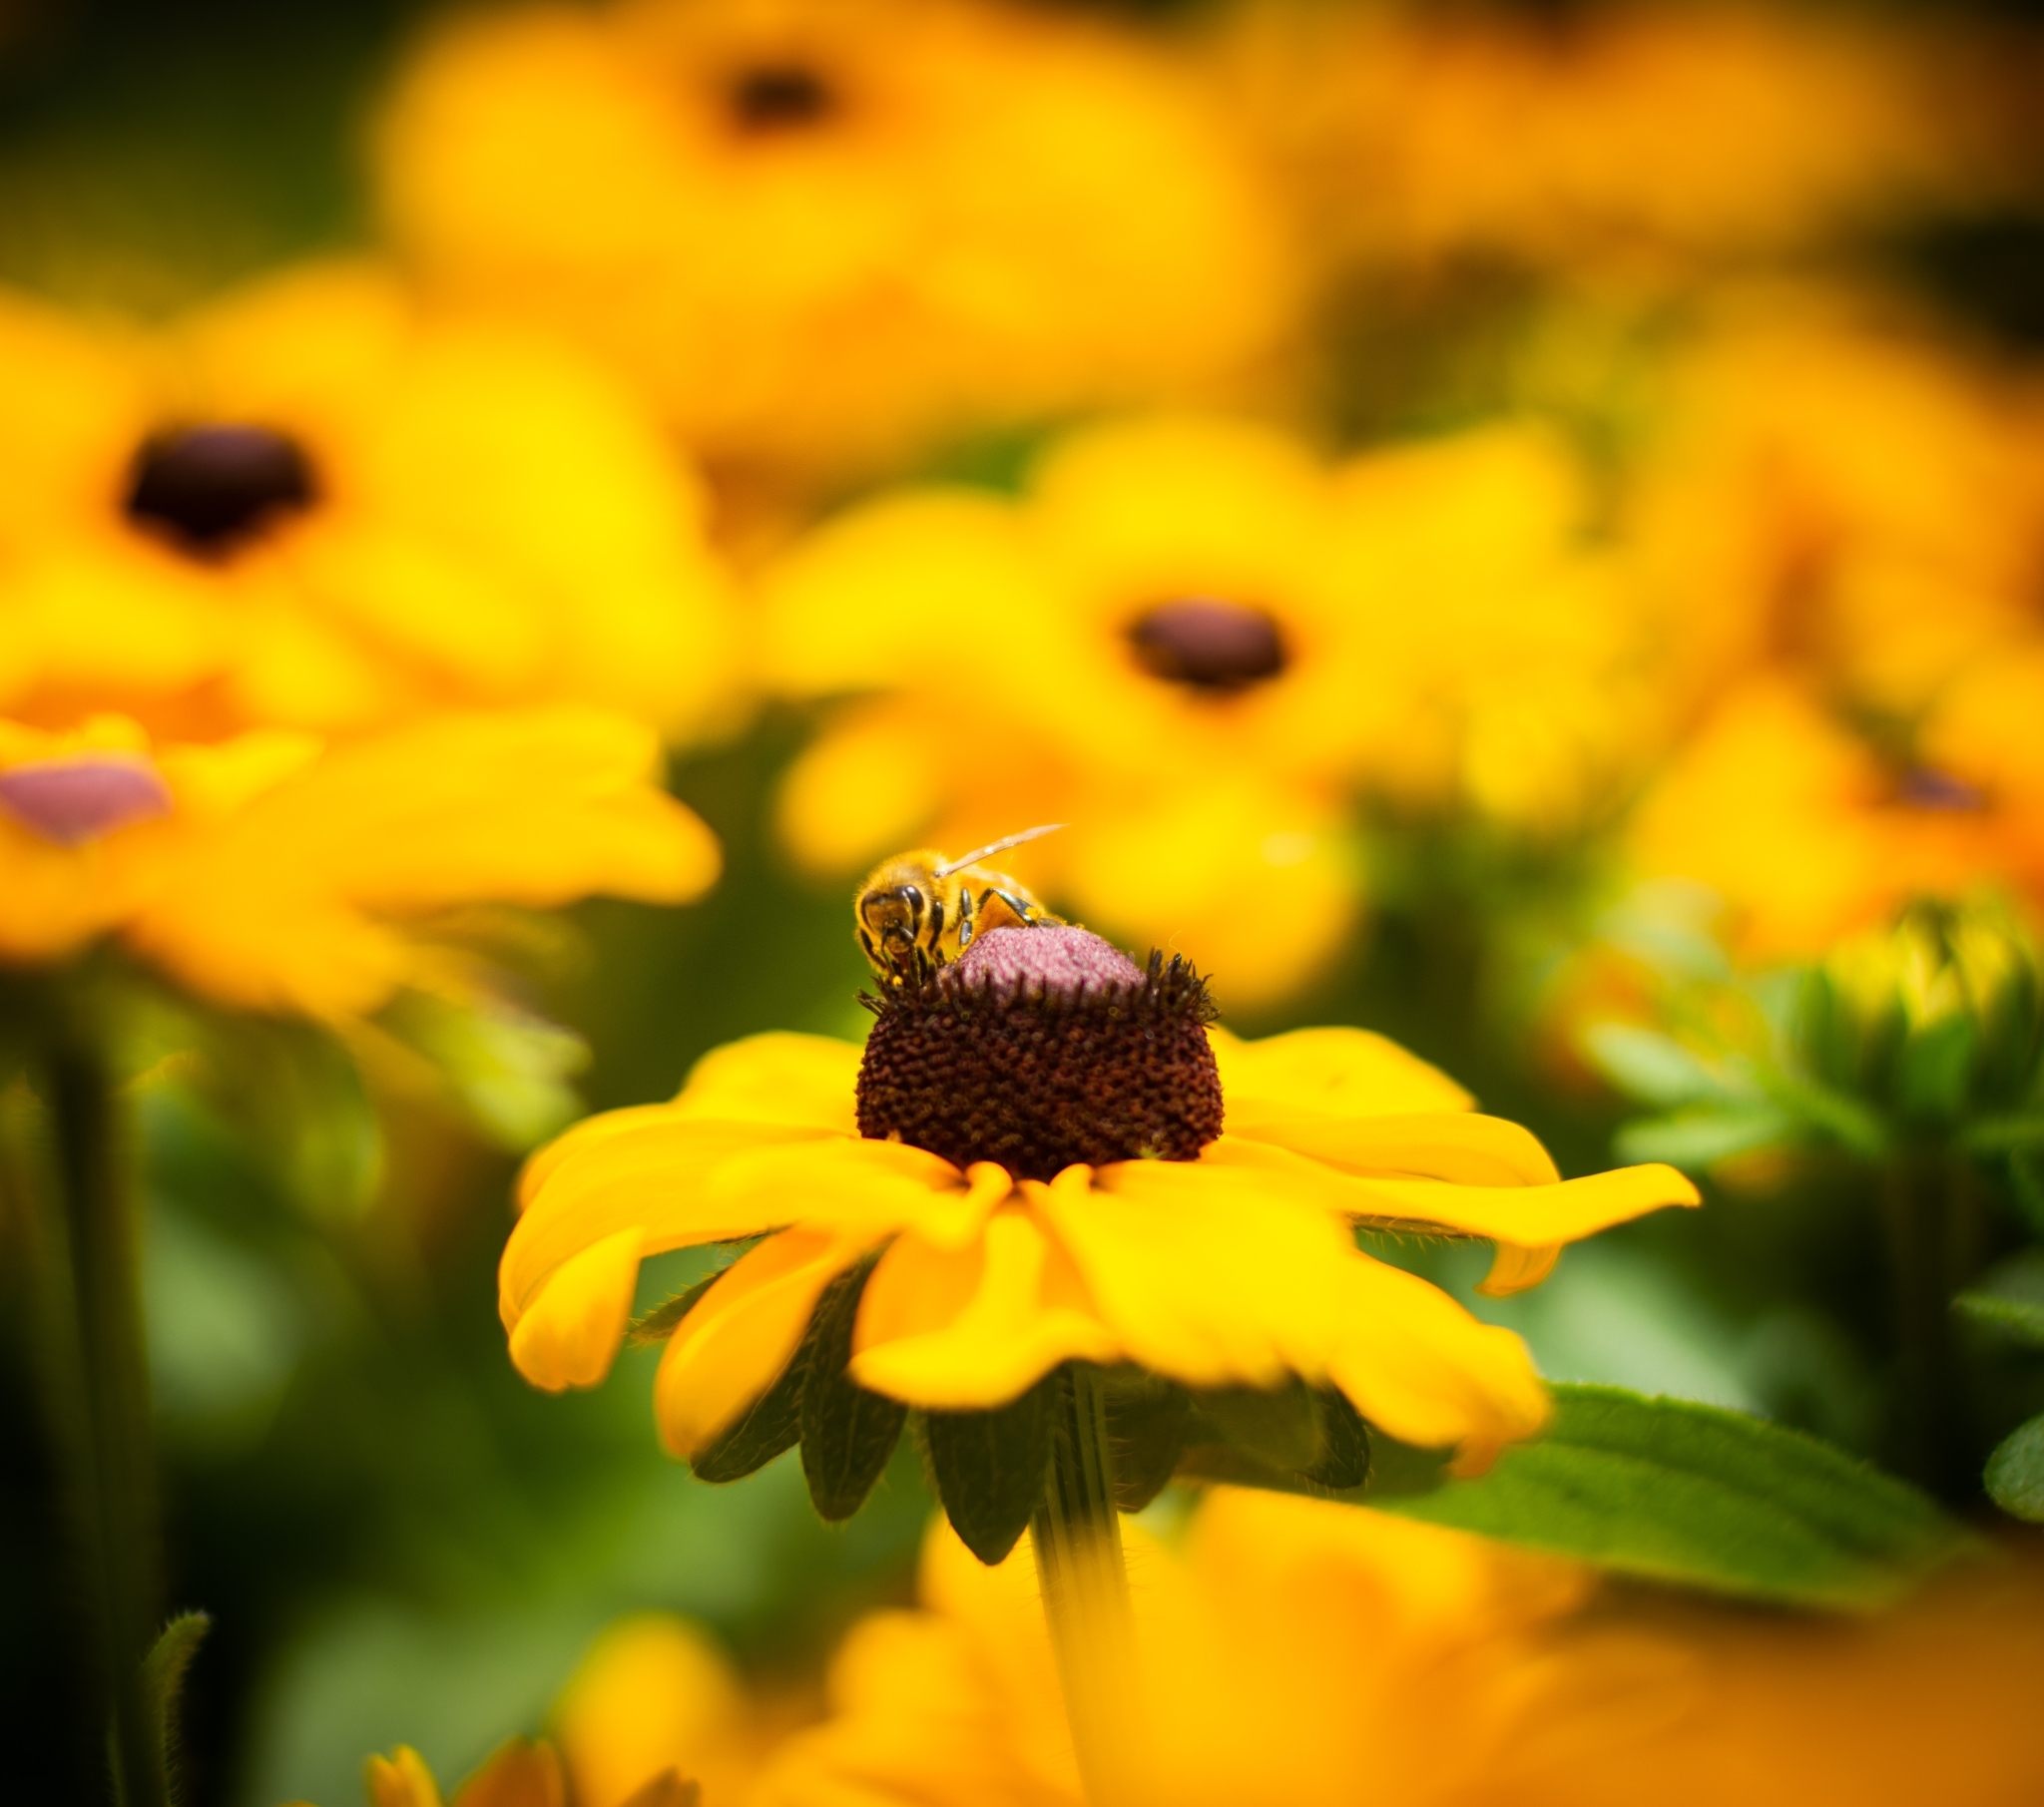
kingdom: Animalia
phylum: Arthropoda
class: Insecta
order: Hymenoptera
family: Apidae
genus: Apis
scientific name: Apis mellifera
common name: Honey bee
